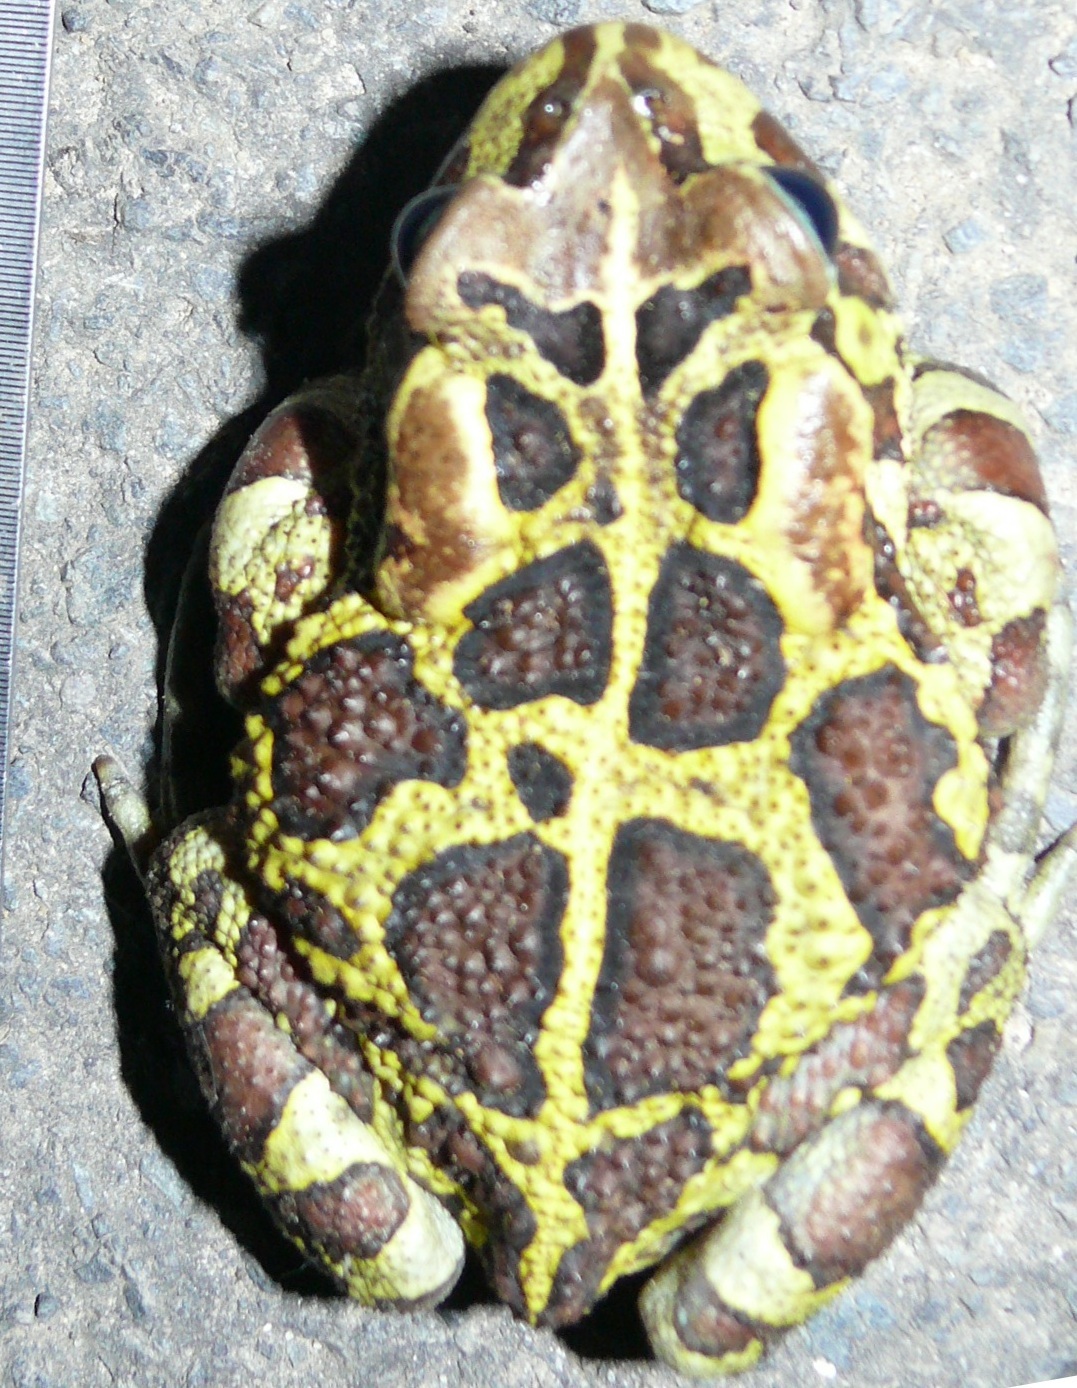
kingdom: Animalia
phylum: Chordata
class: Amphibia
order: Anura
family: Bufonidae
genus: Sclerophrys
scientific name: Sclerophrys pantherina
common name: Panther toad
